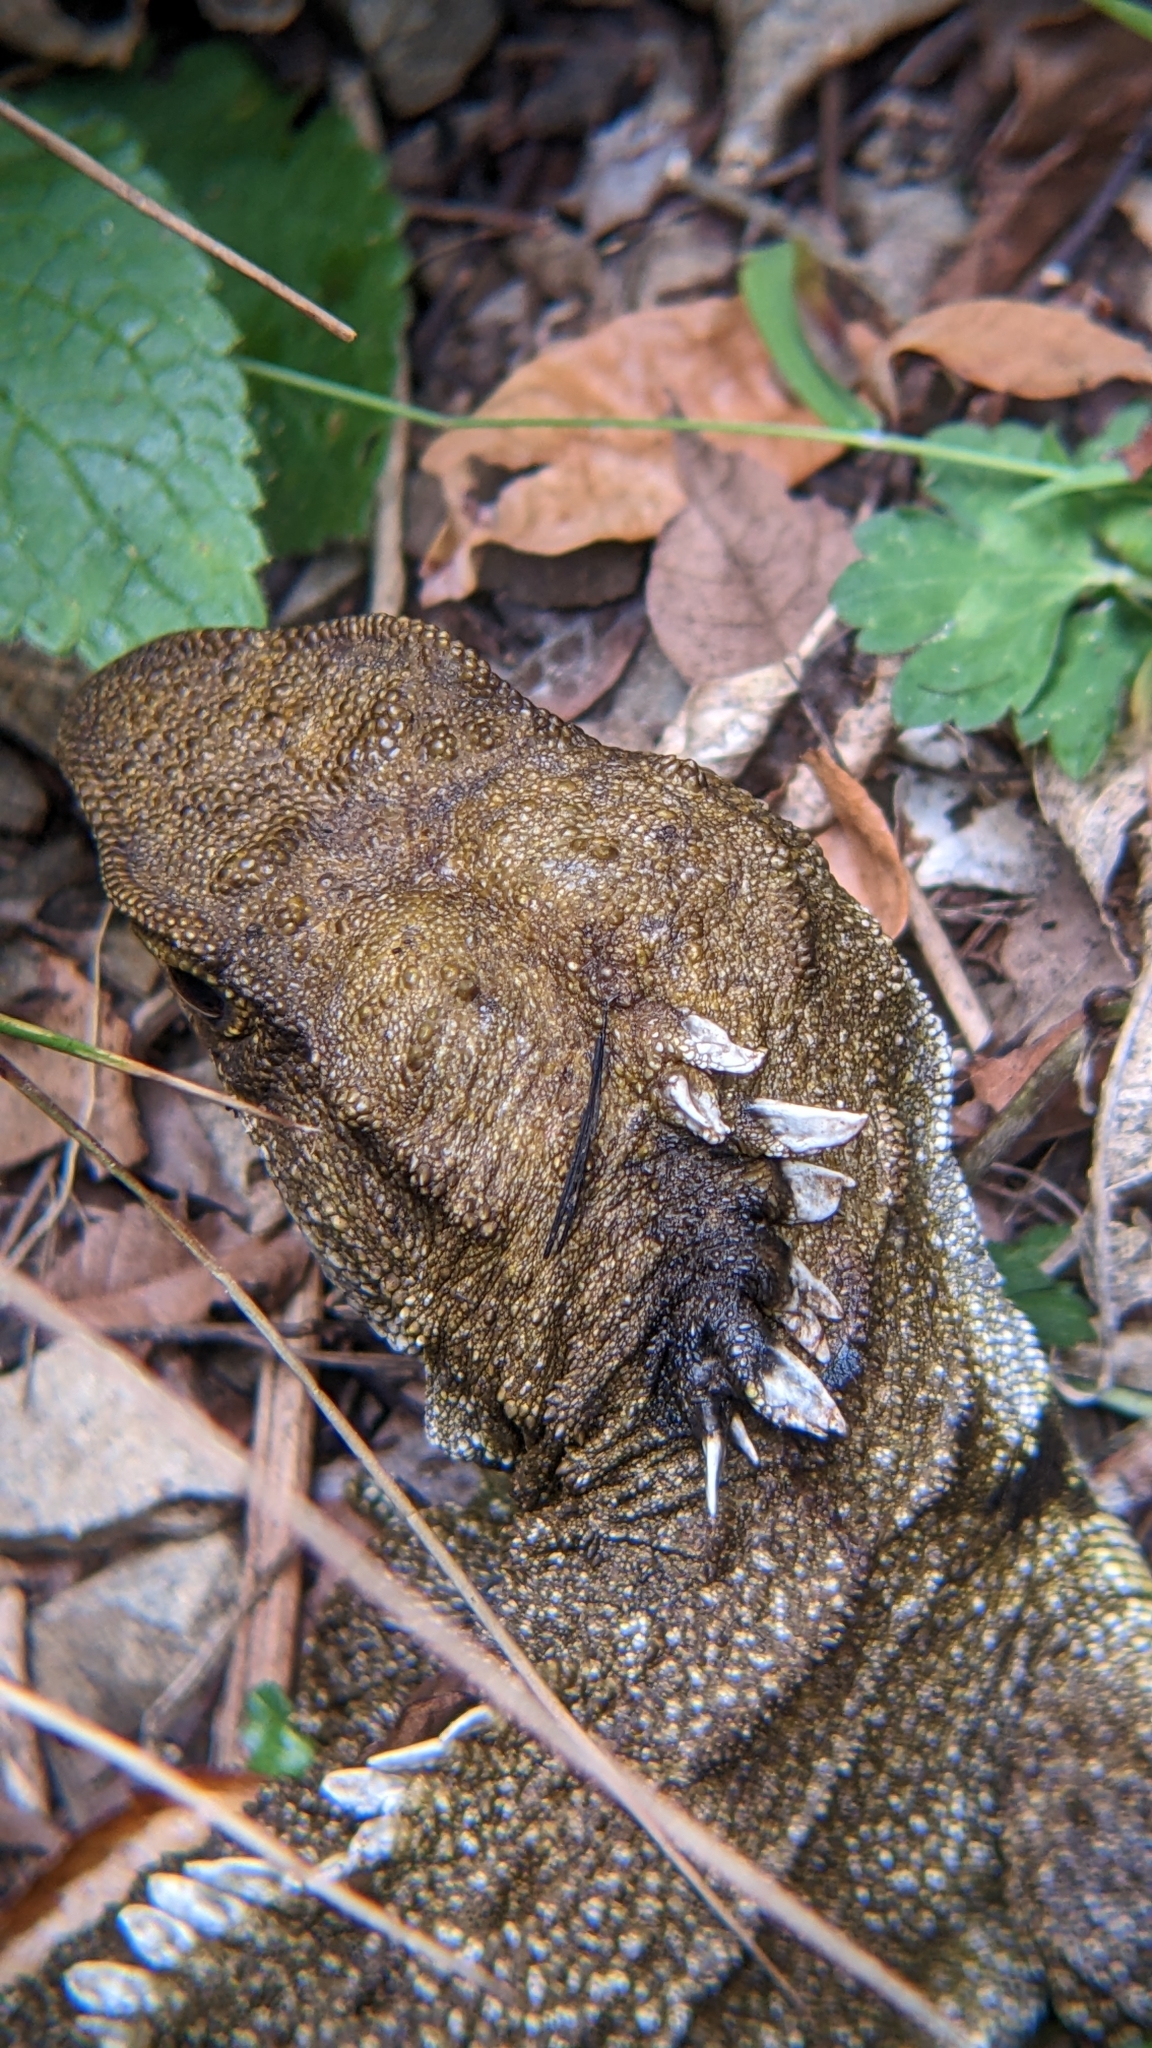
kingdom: Animalia
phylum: Chordata
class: Sphenodontia
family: Sphenodontidae
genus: Sphenodon
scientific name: Sphenodon punctatus
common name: Tuatara
